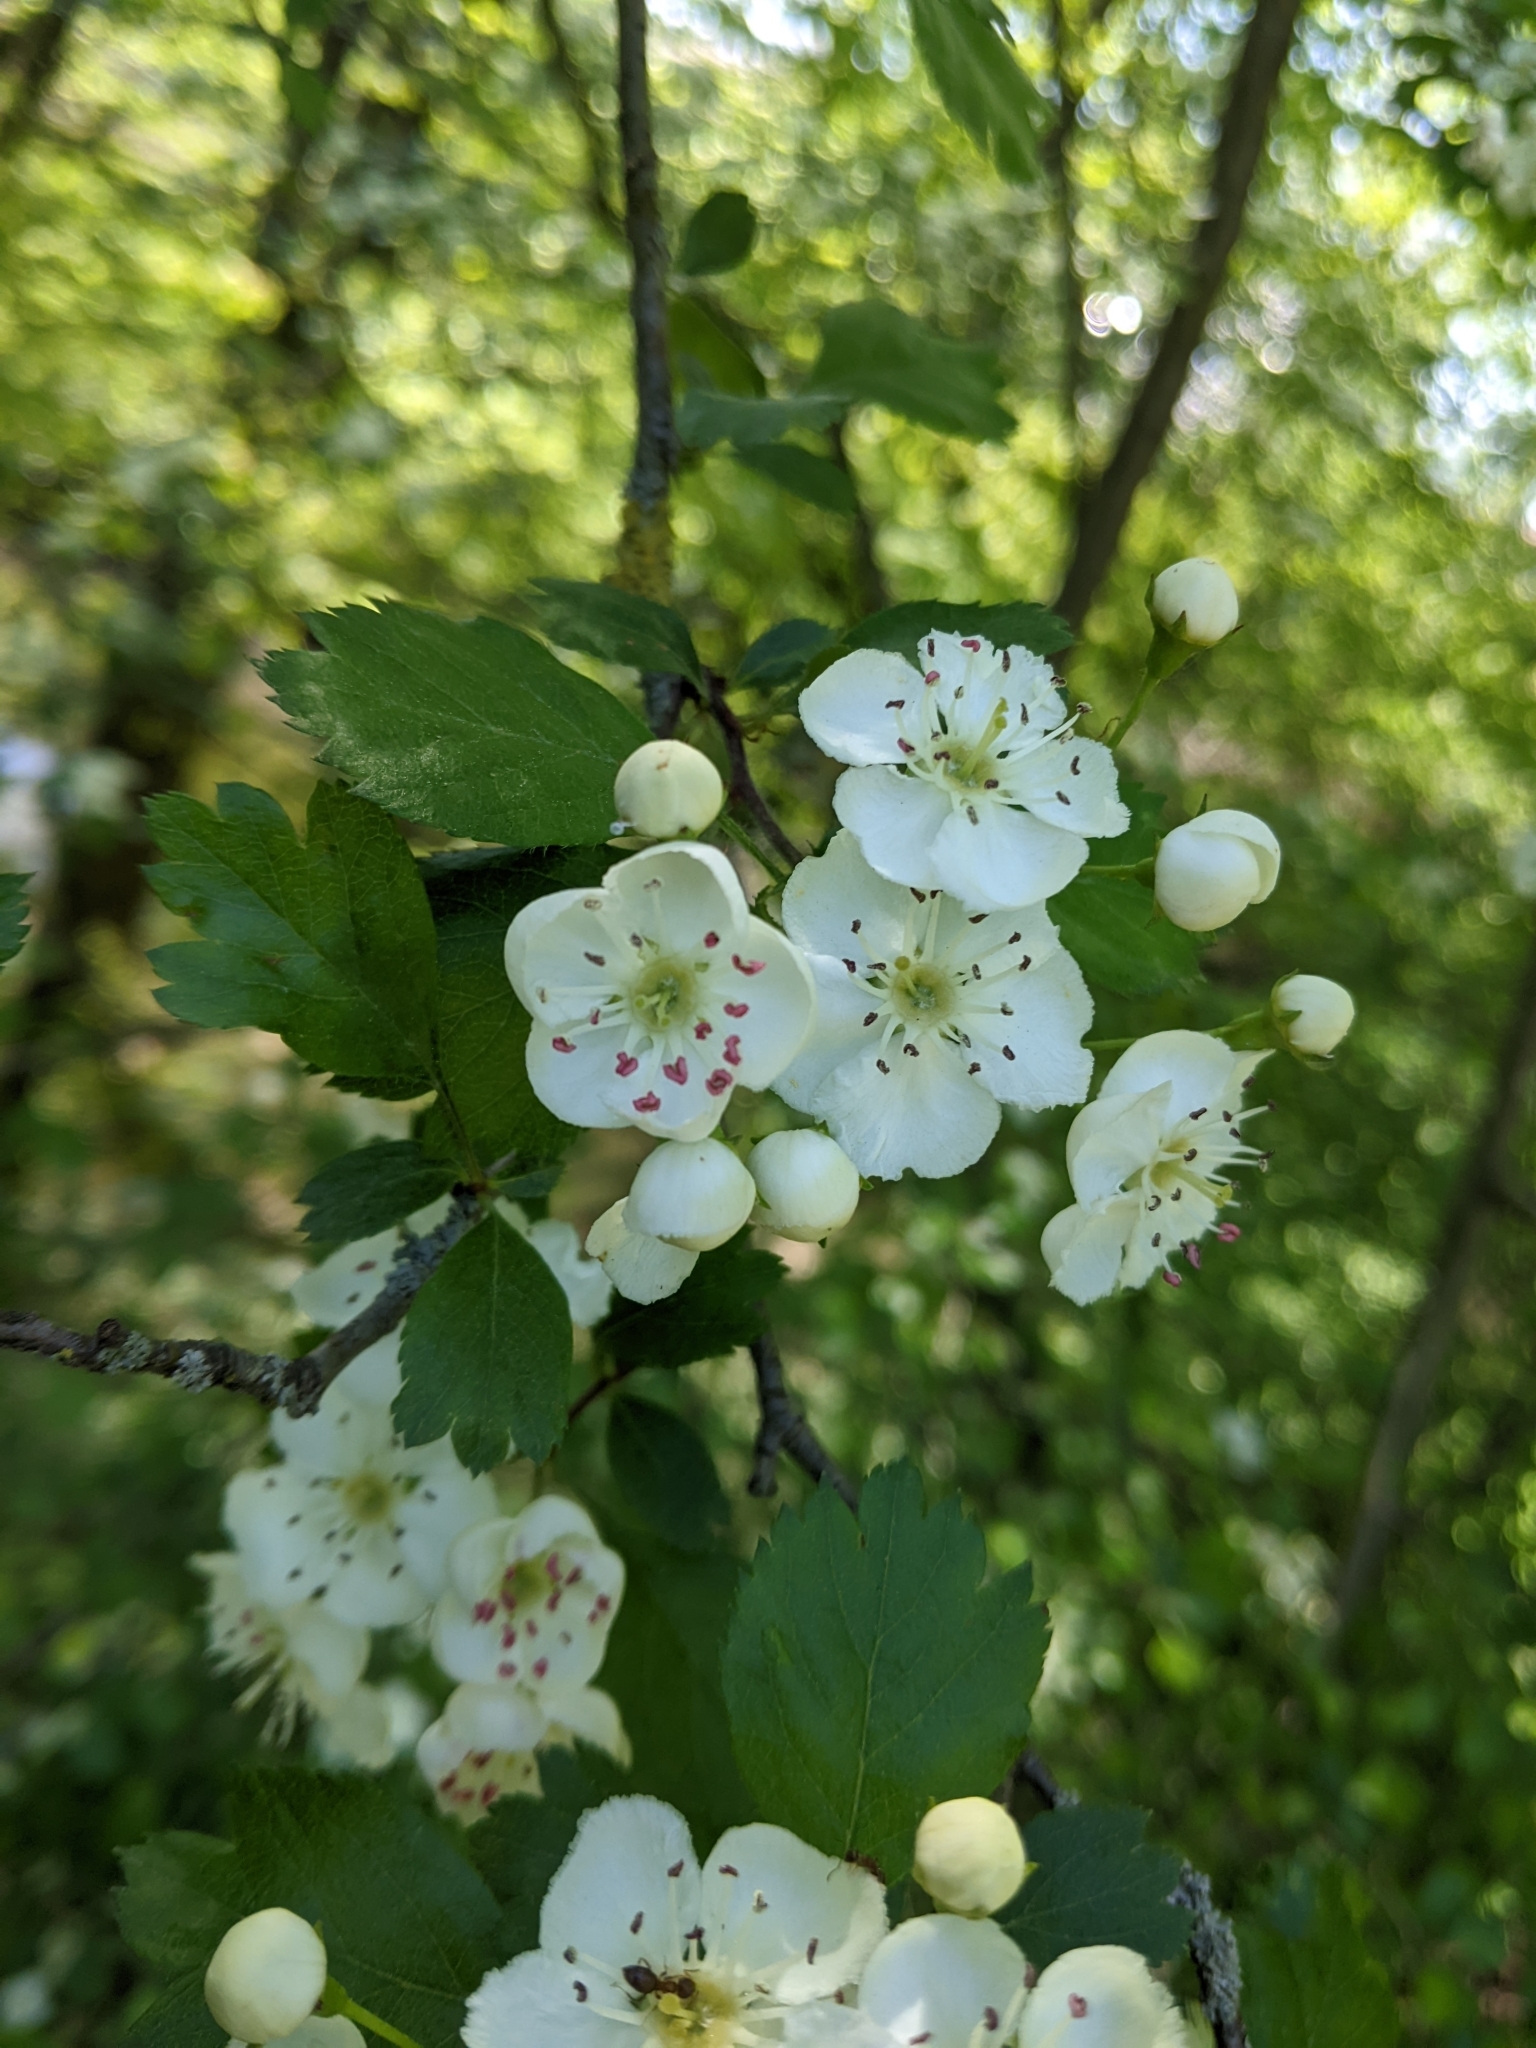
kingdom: Plantae
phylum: Tracheophyta
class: Magnoliopsida
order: Rosales
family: Rosaceae
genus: Crataegus
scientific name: Crataegus laevigata
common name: Midland hawthorn
